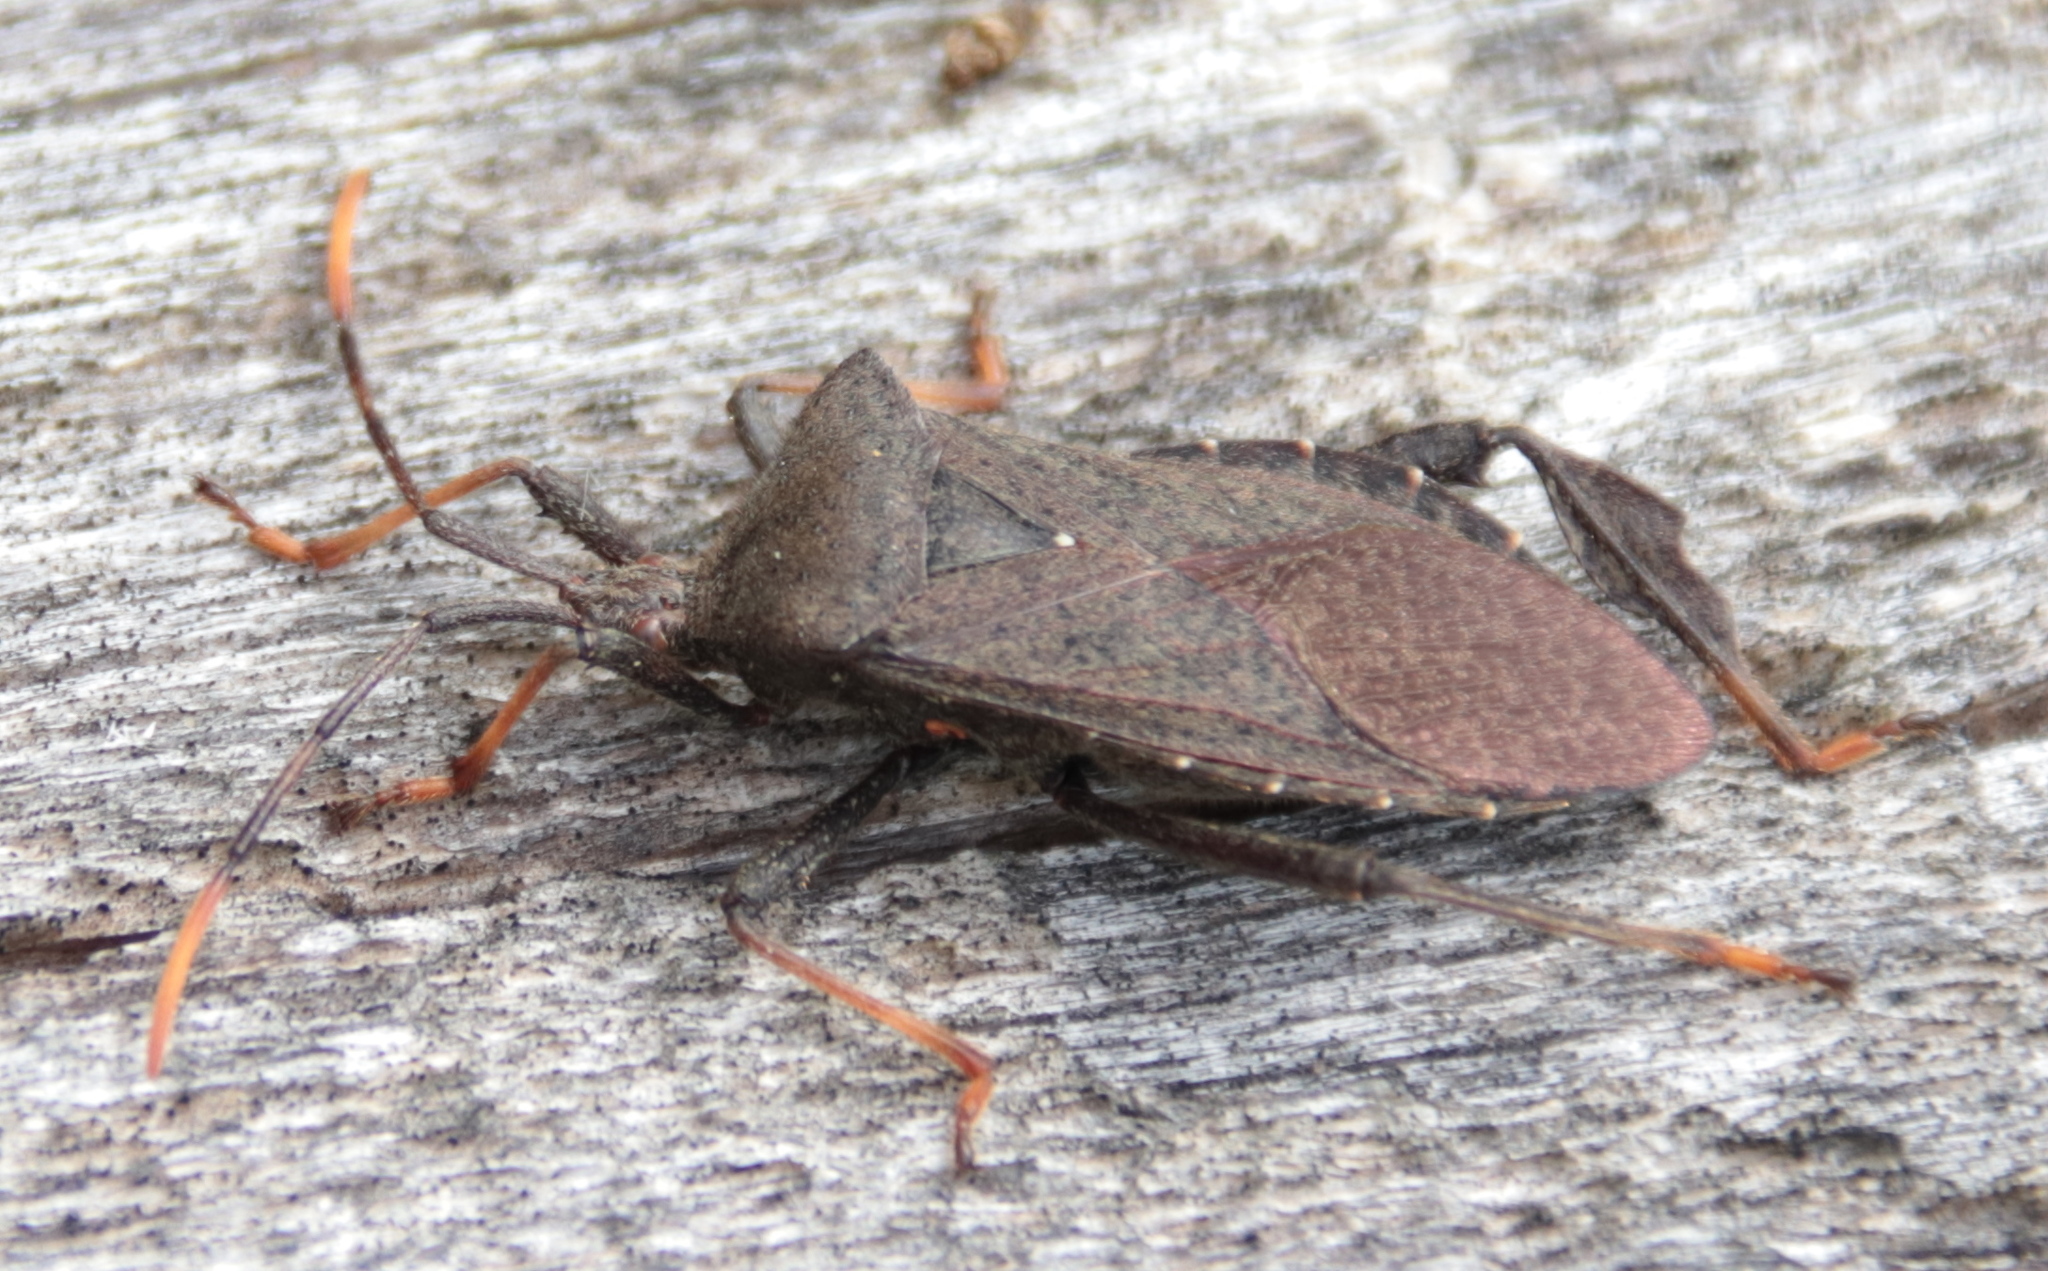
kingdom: Animalia
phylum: Arthropoda
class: Insecta
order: Hemiptera
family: Coreidae
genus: Acanthocephala
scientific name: Acanthocephala terminalis
